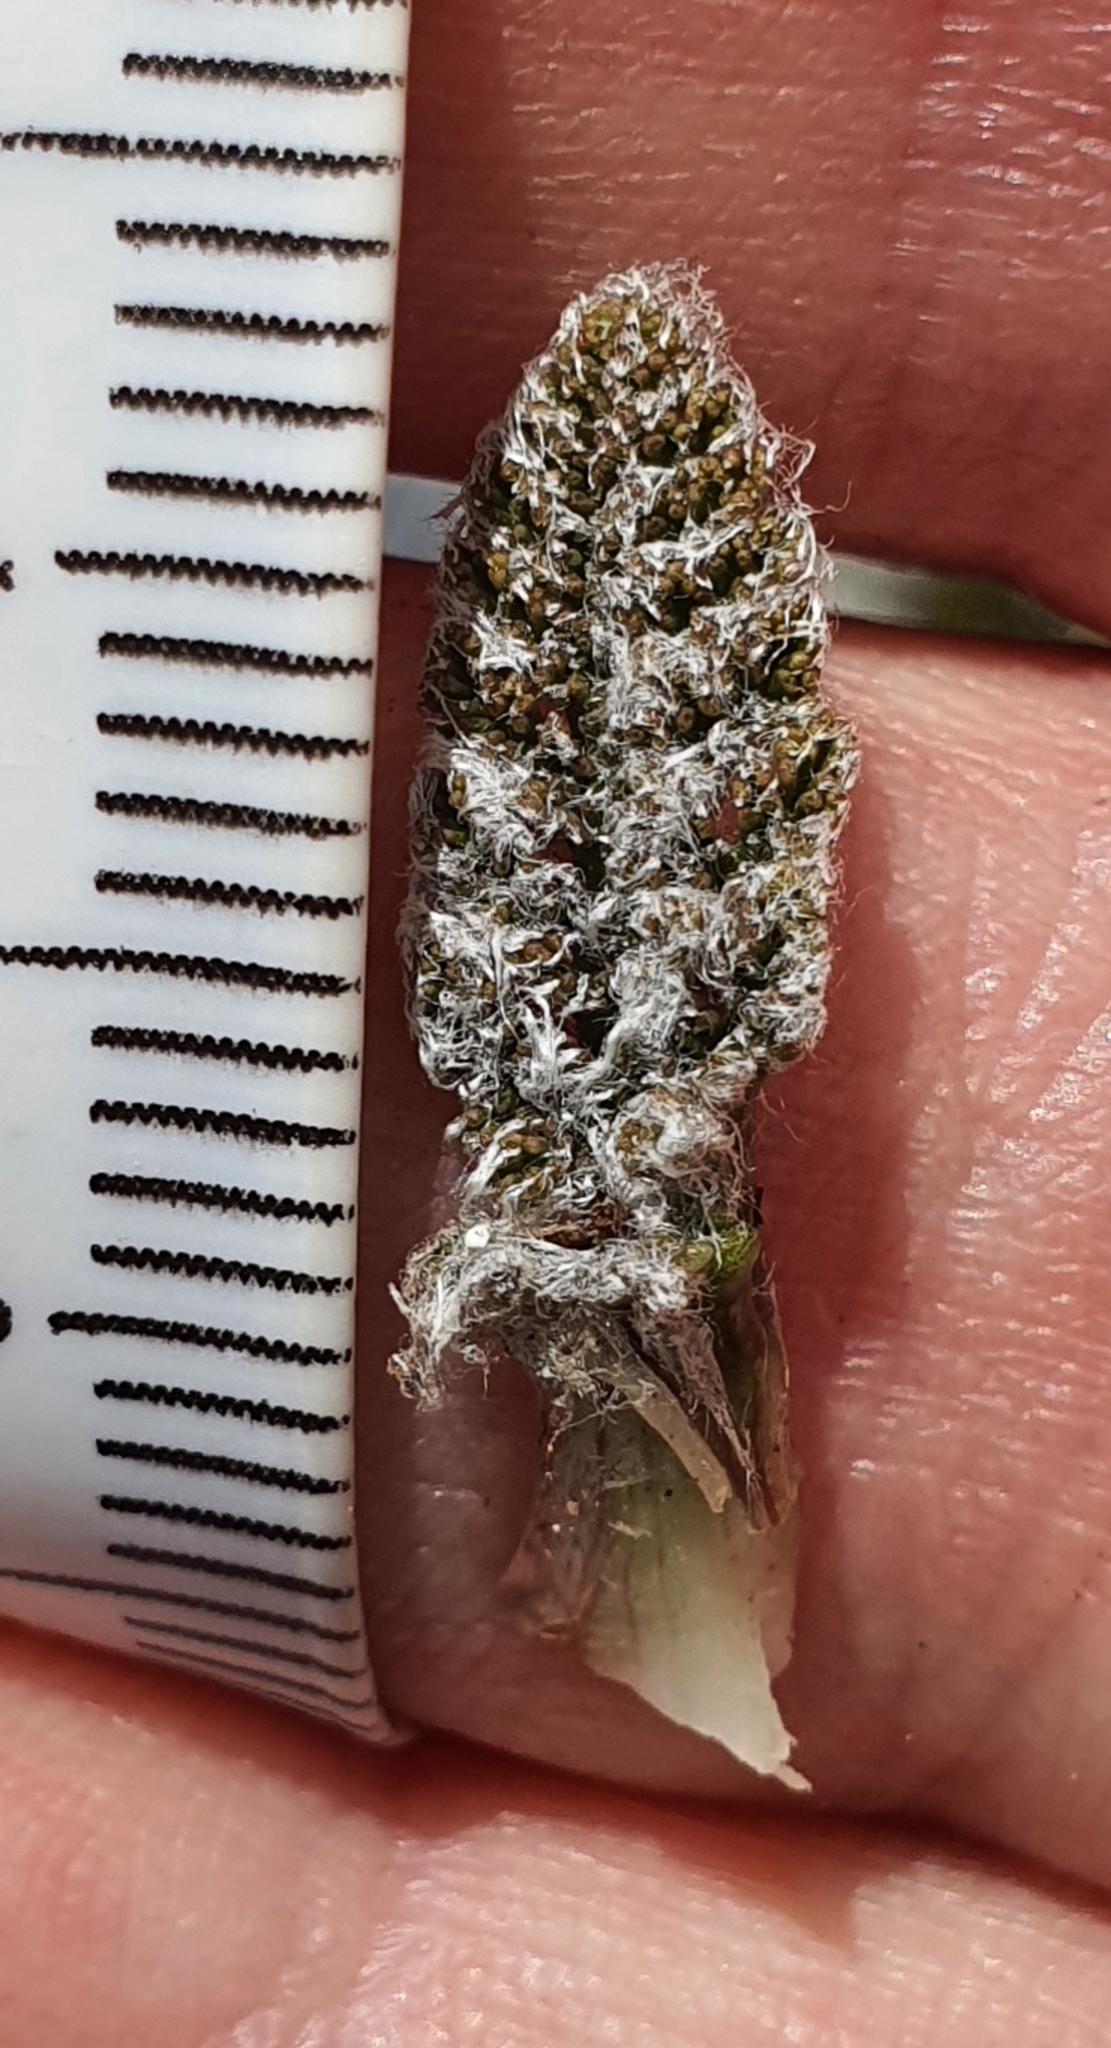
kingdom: Plantae
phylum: Tracheophyta
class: Magnoliopsida
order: Apiales
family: Apiaceae
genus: Anisotome
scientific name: Anisotome lanuginosa
